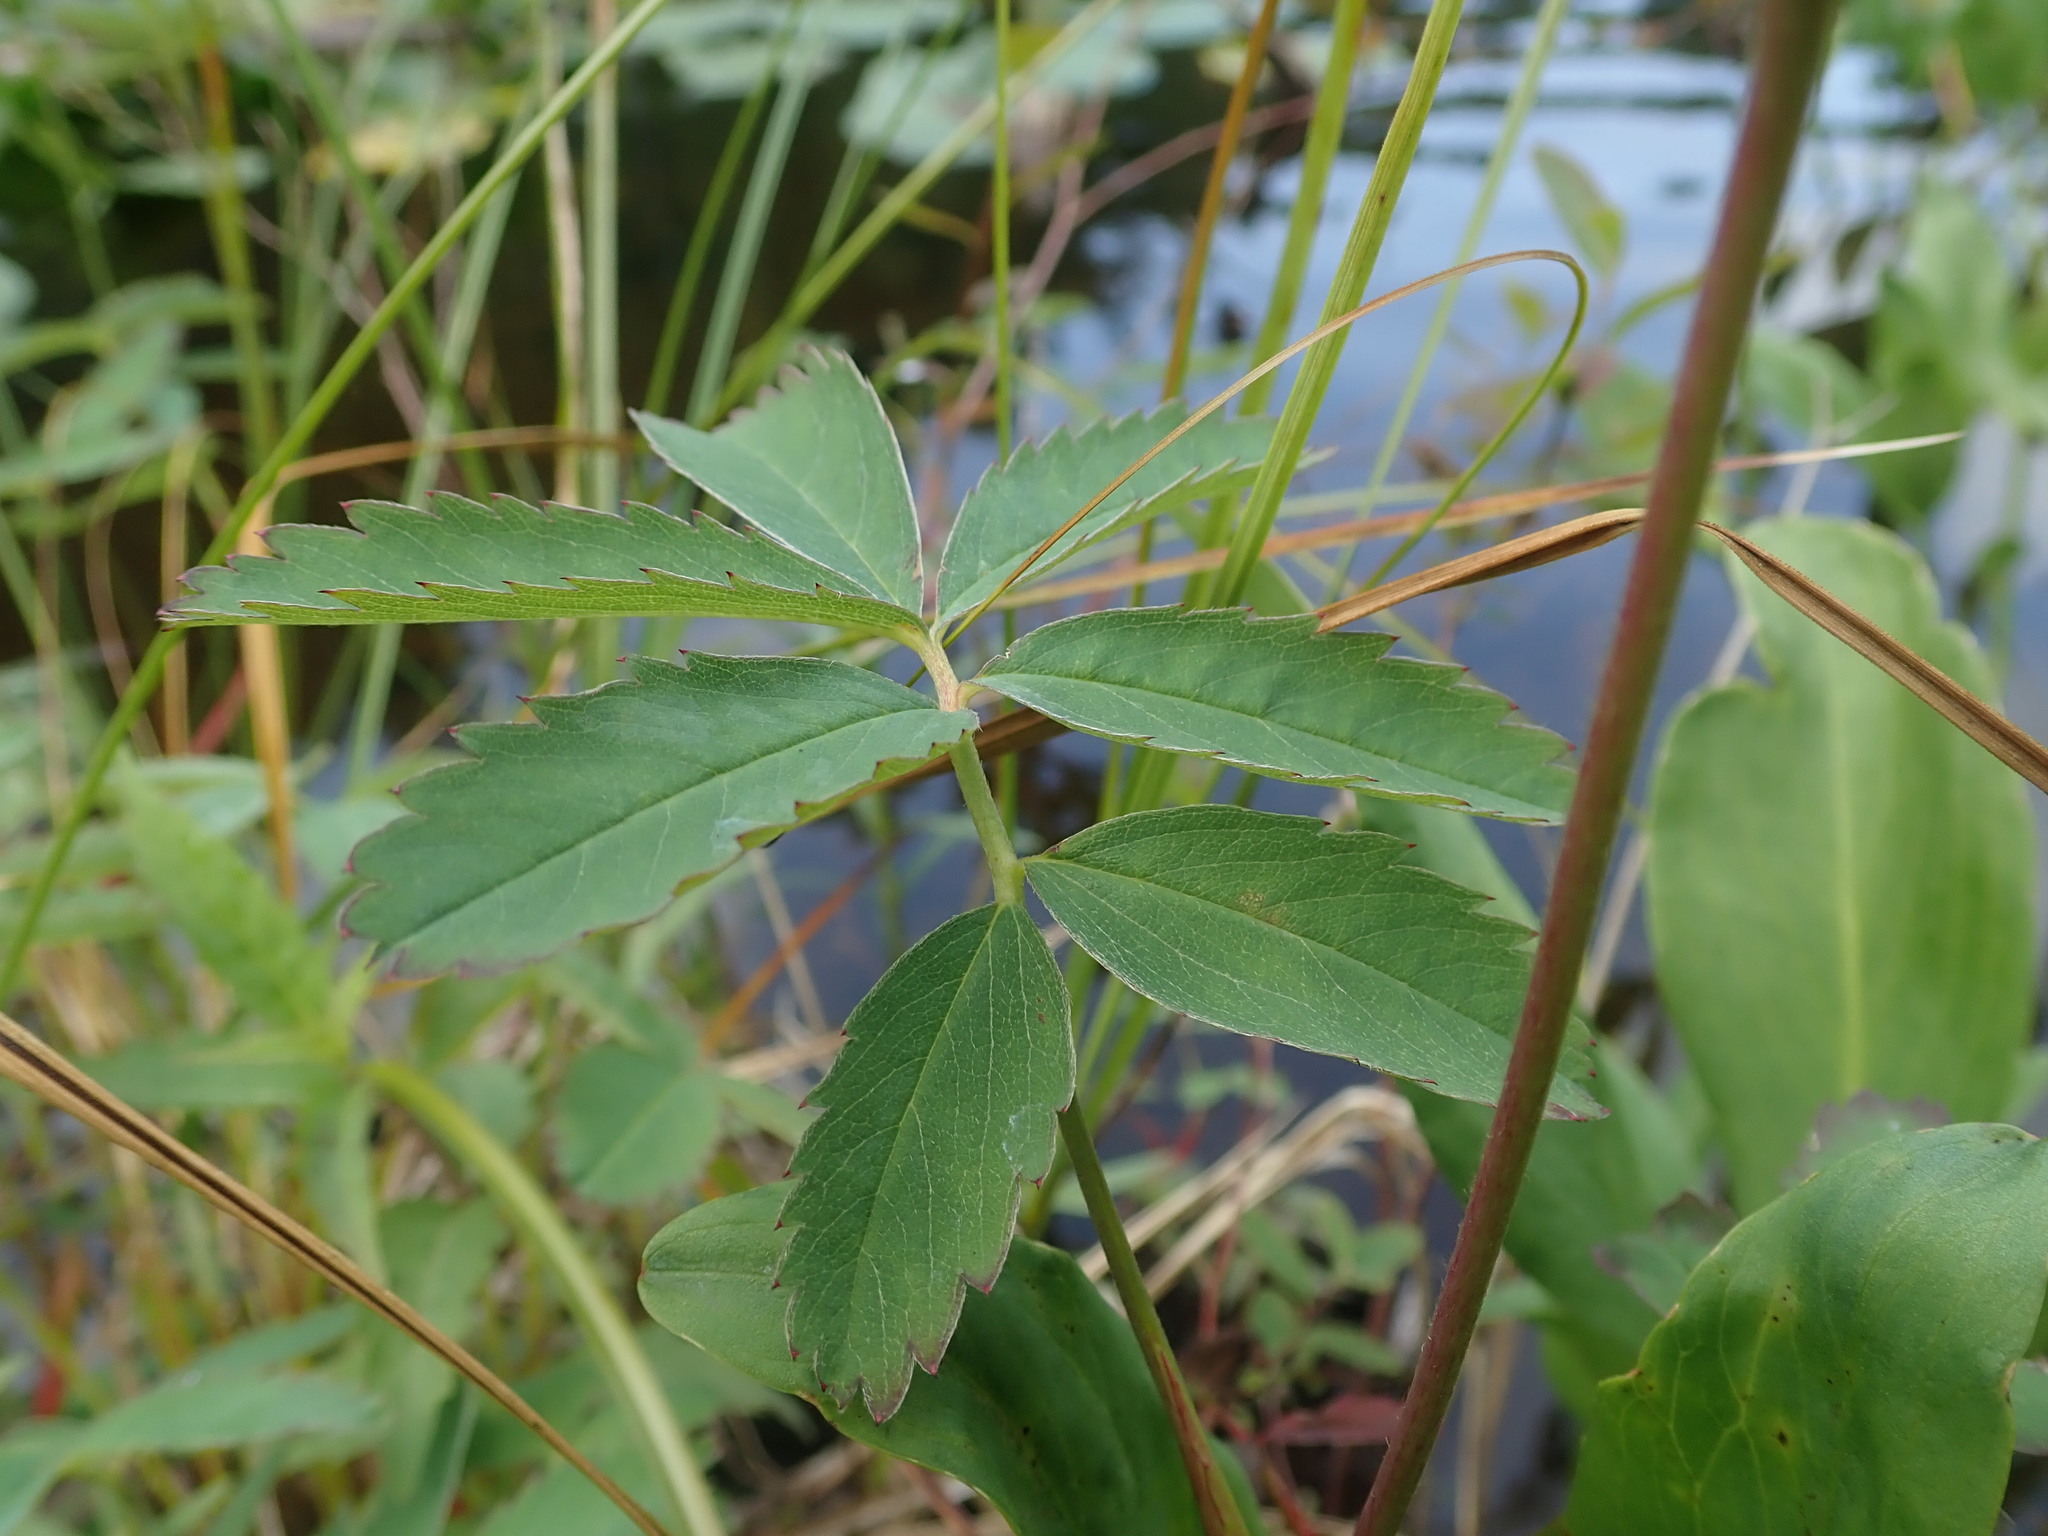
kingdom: Plantae
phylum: Tracheophyta
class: Magnoliopsida
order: Rosales
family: Rosaceae
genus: Comarum
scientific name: Comarum palustre
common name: Marsh cinquefoil
